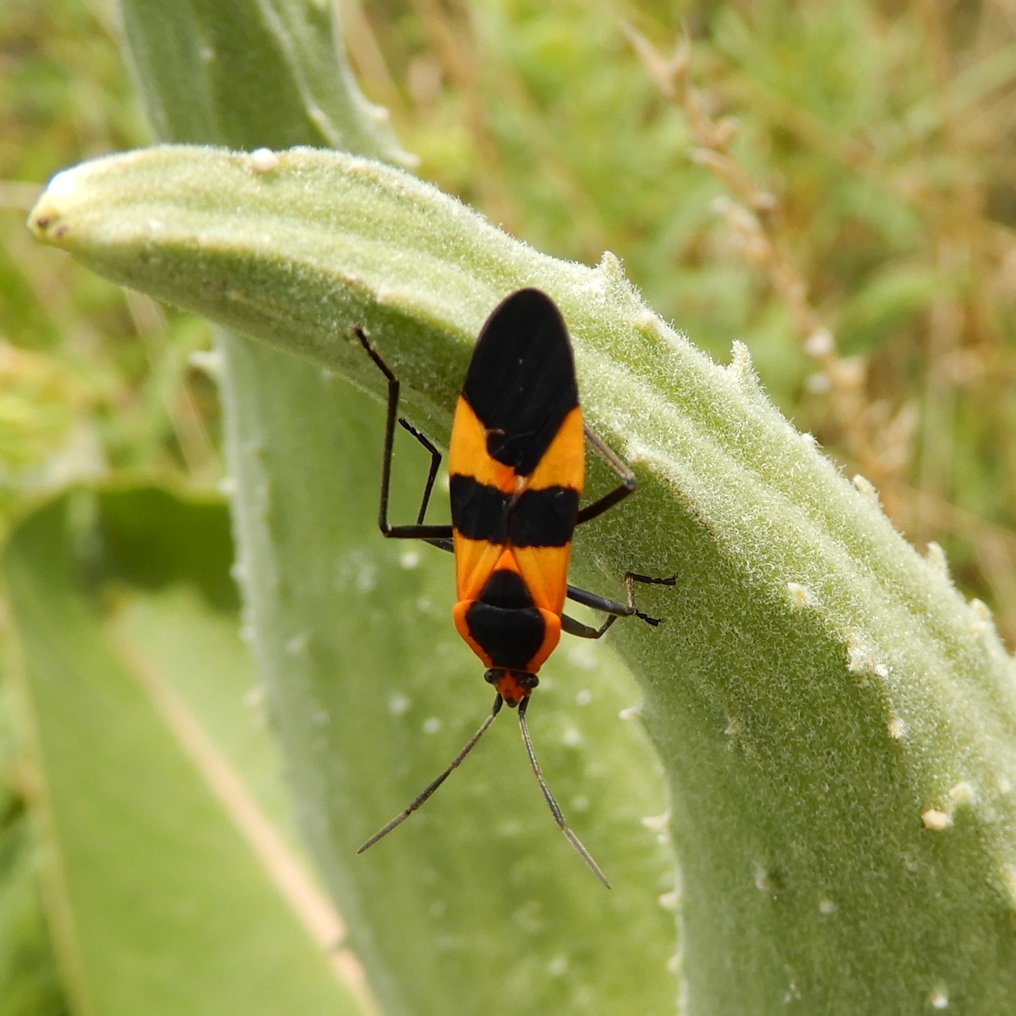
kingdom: Animalia
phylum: Arthropoda
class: Insecta
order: Hemiptera
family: Lygaeidae
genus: Oncopeltus
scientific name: Oncopeltus fasciatus
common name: Large milkweed bug
